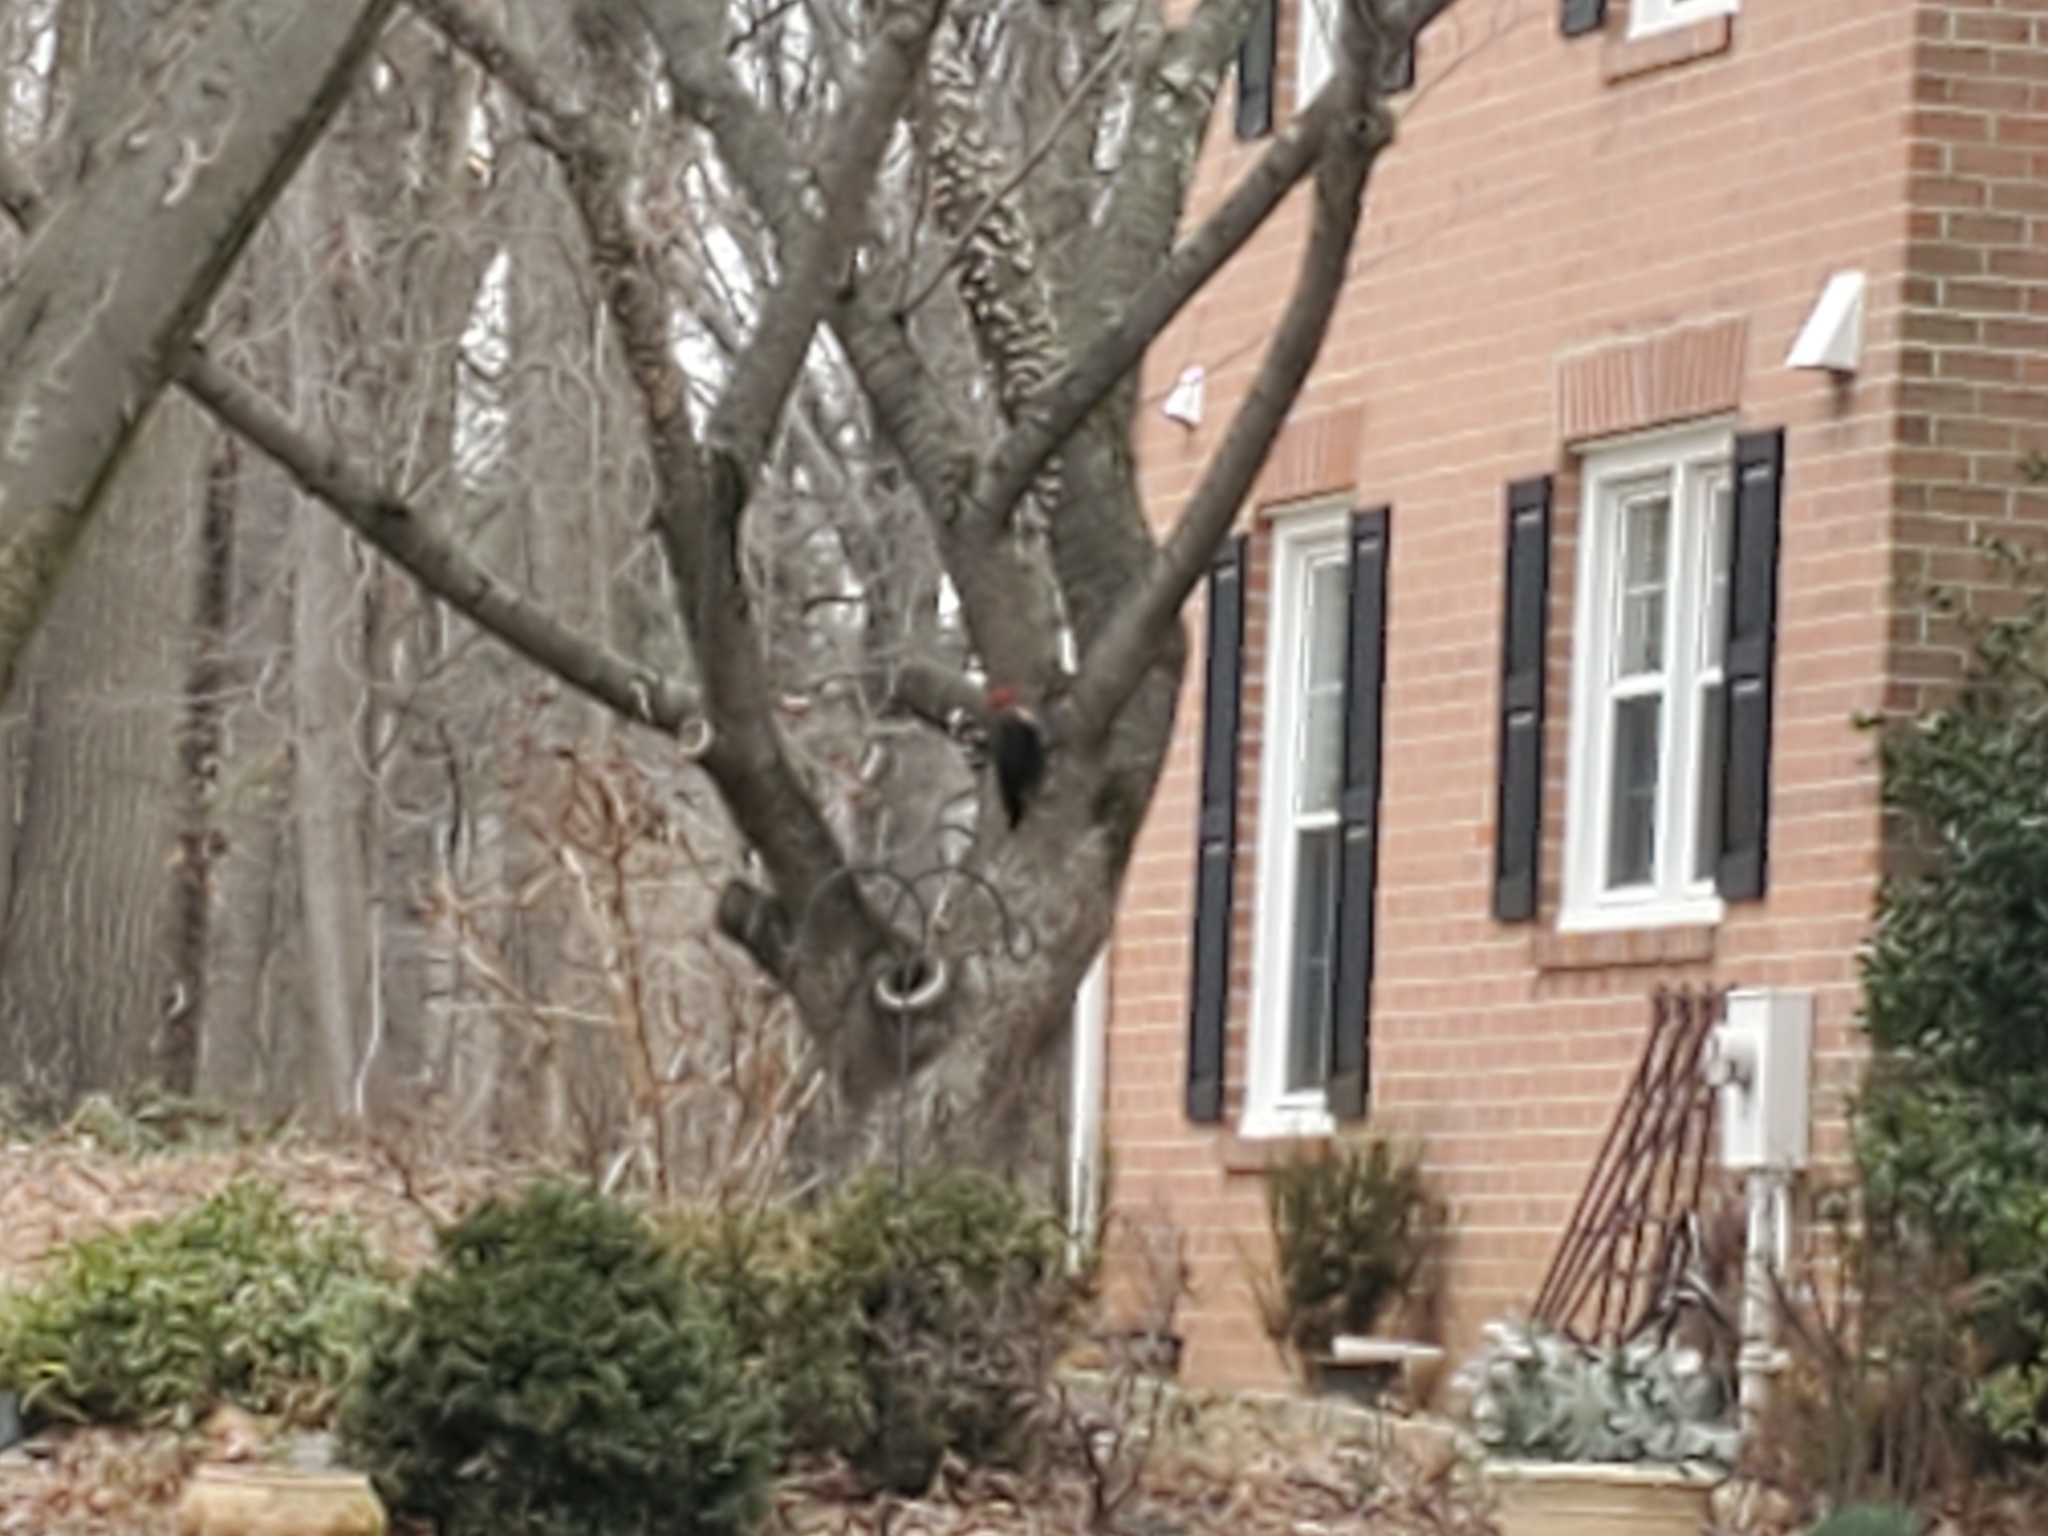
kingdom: Animalia
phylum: Chordata
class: Aves
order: Piciformes
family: Picidae
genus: Dryocopus
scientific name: Dryocopus pileatus
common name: Pileated woodpecker
